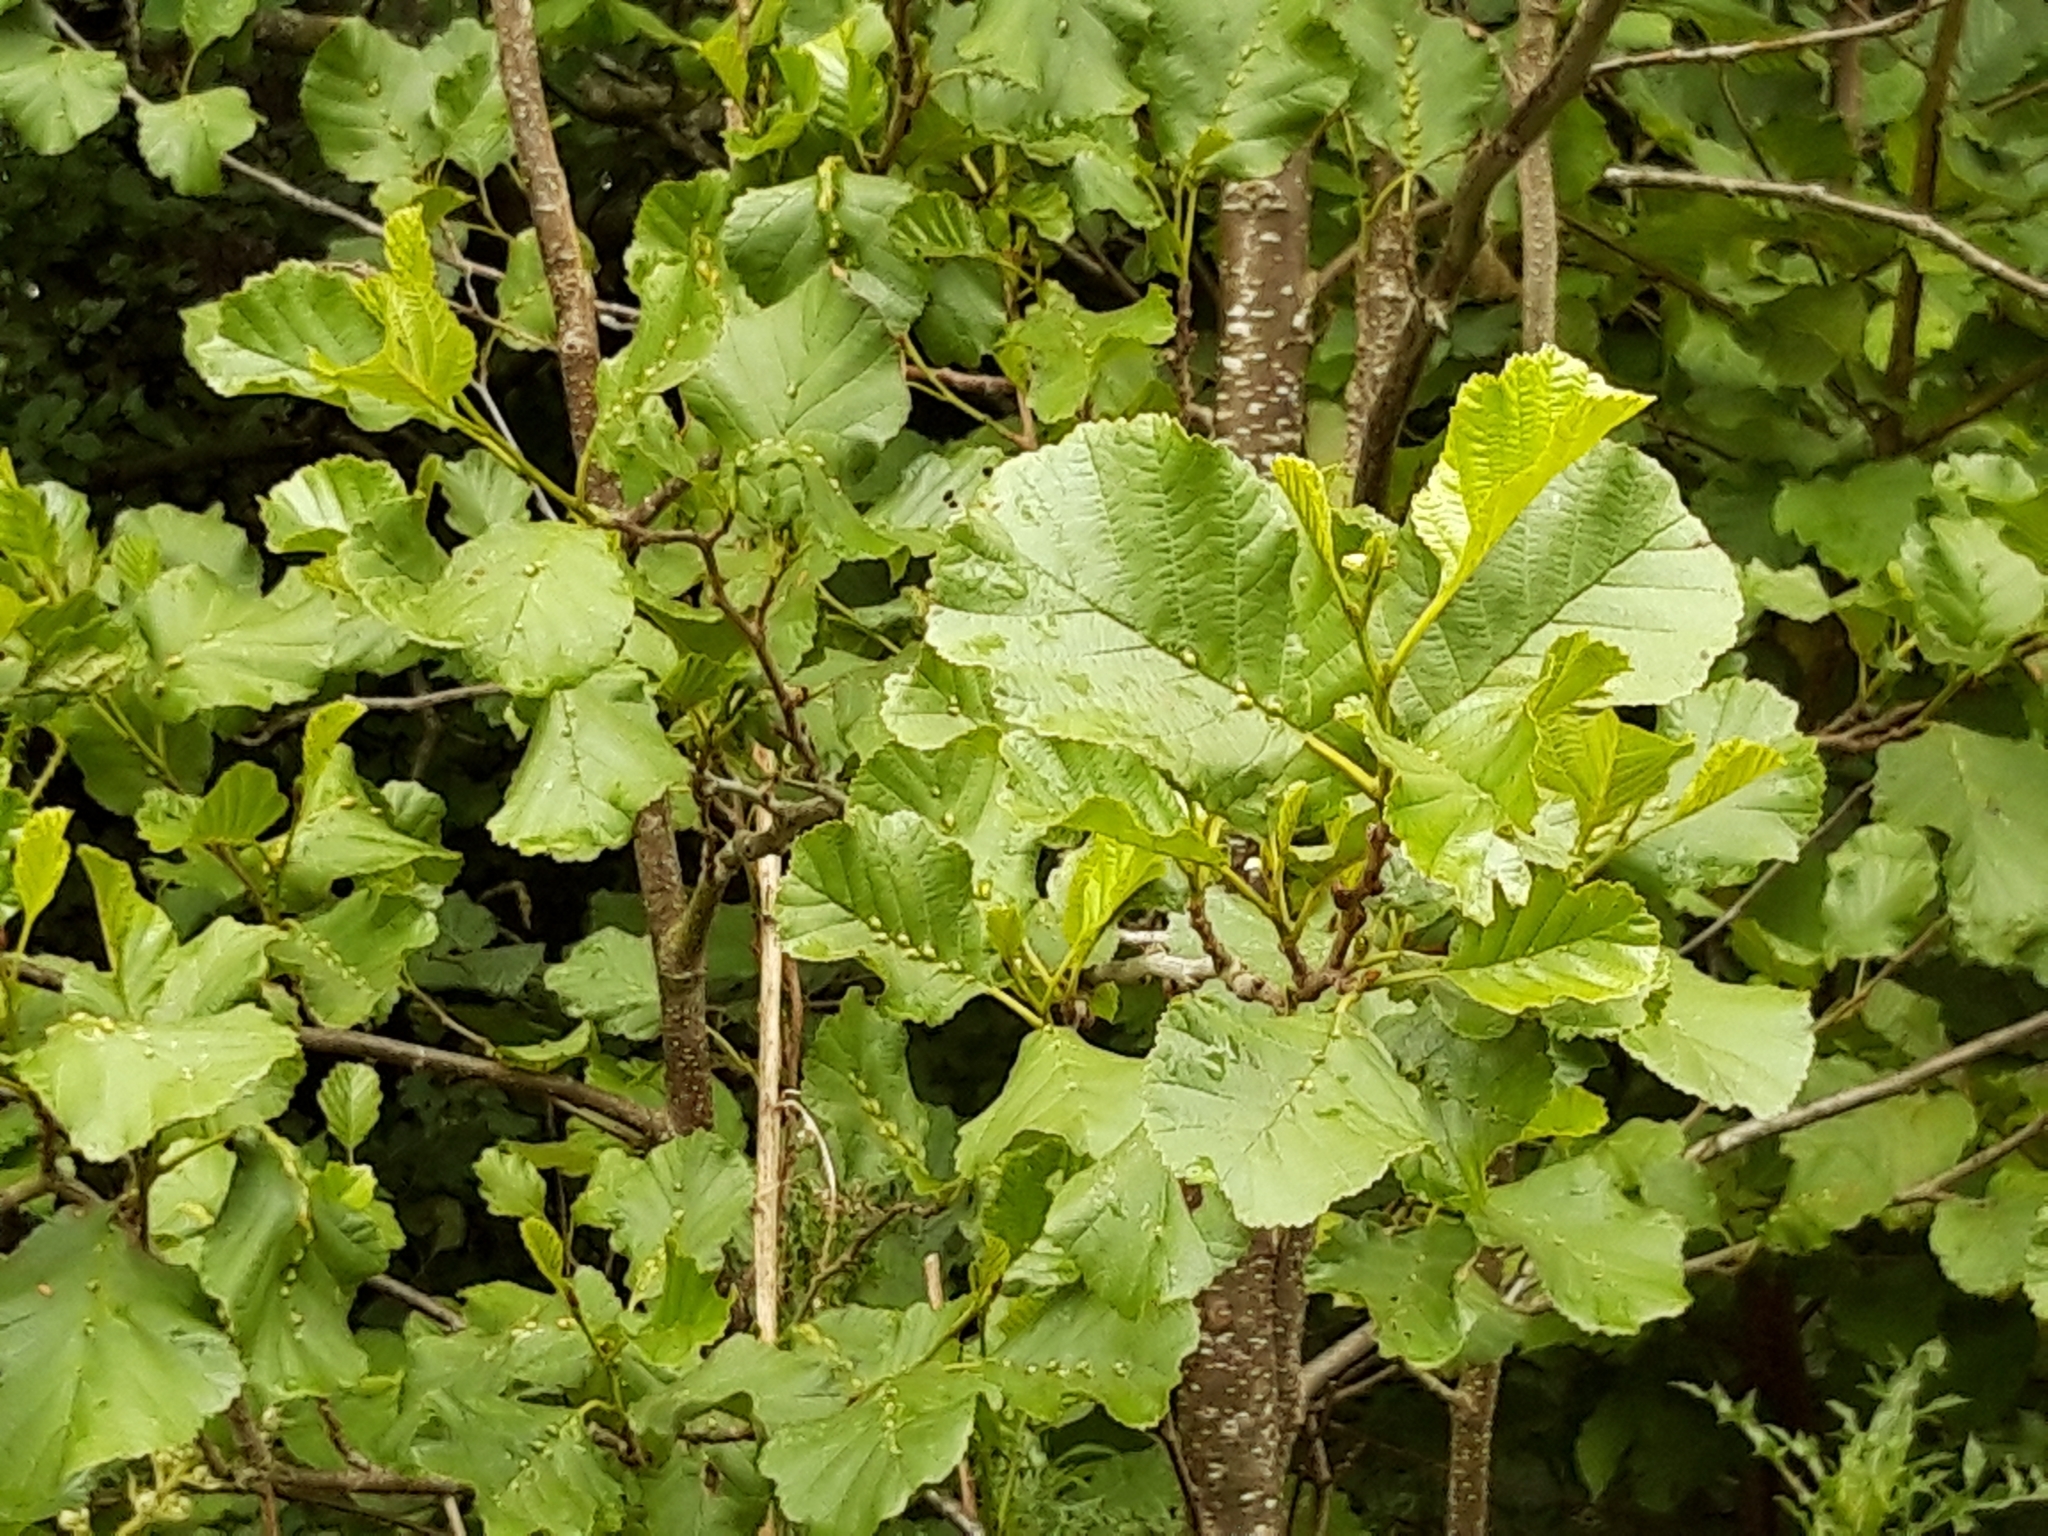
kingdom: Plantae
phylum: Tracheophyta
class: Magnoliopsida
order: Fagales
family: Betulaceae
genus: Alnus
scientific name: Alnus glutinosa
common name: Black alder
